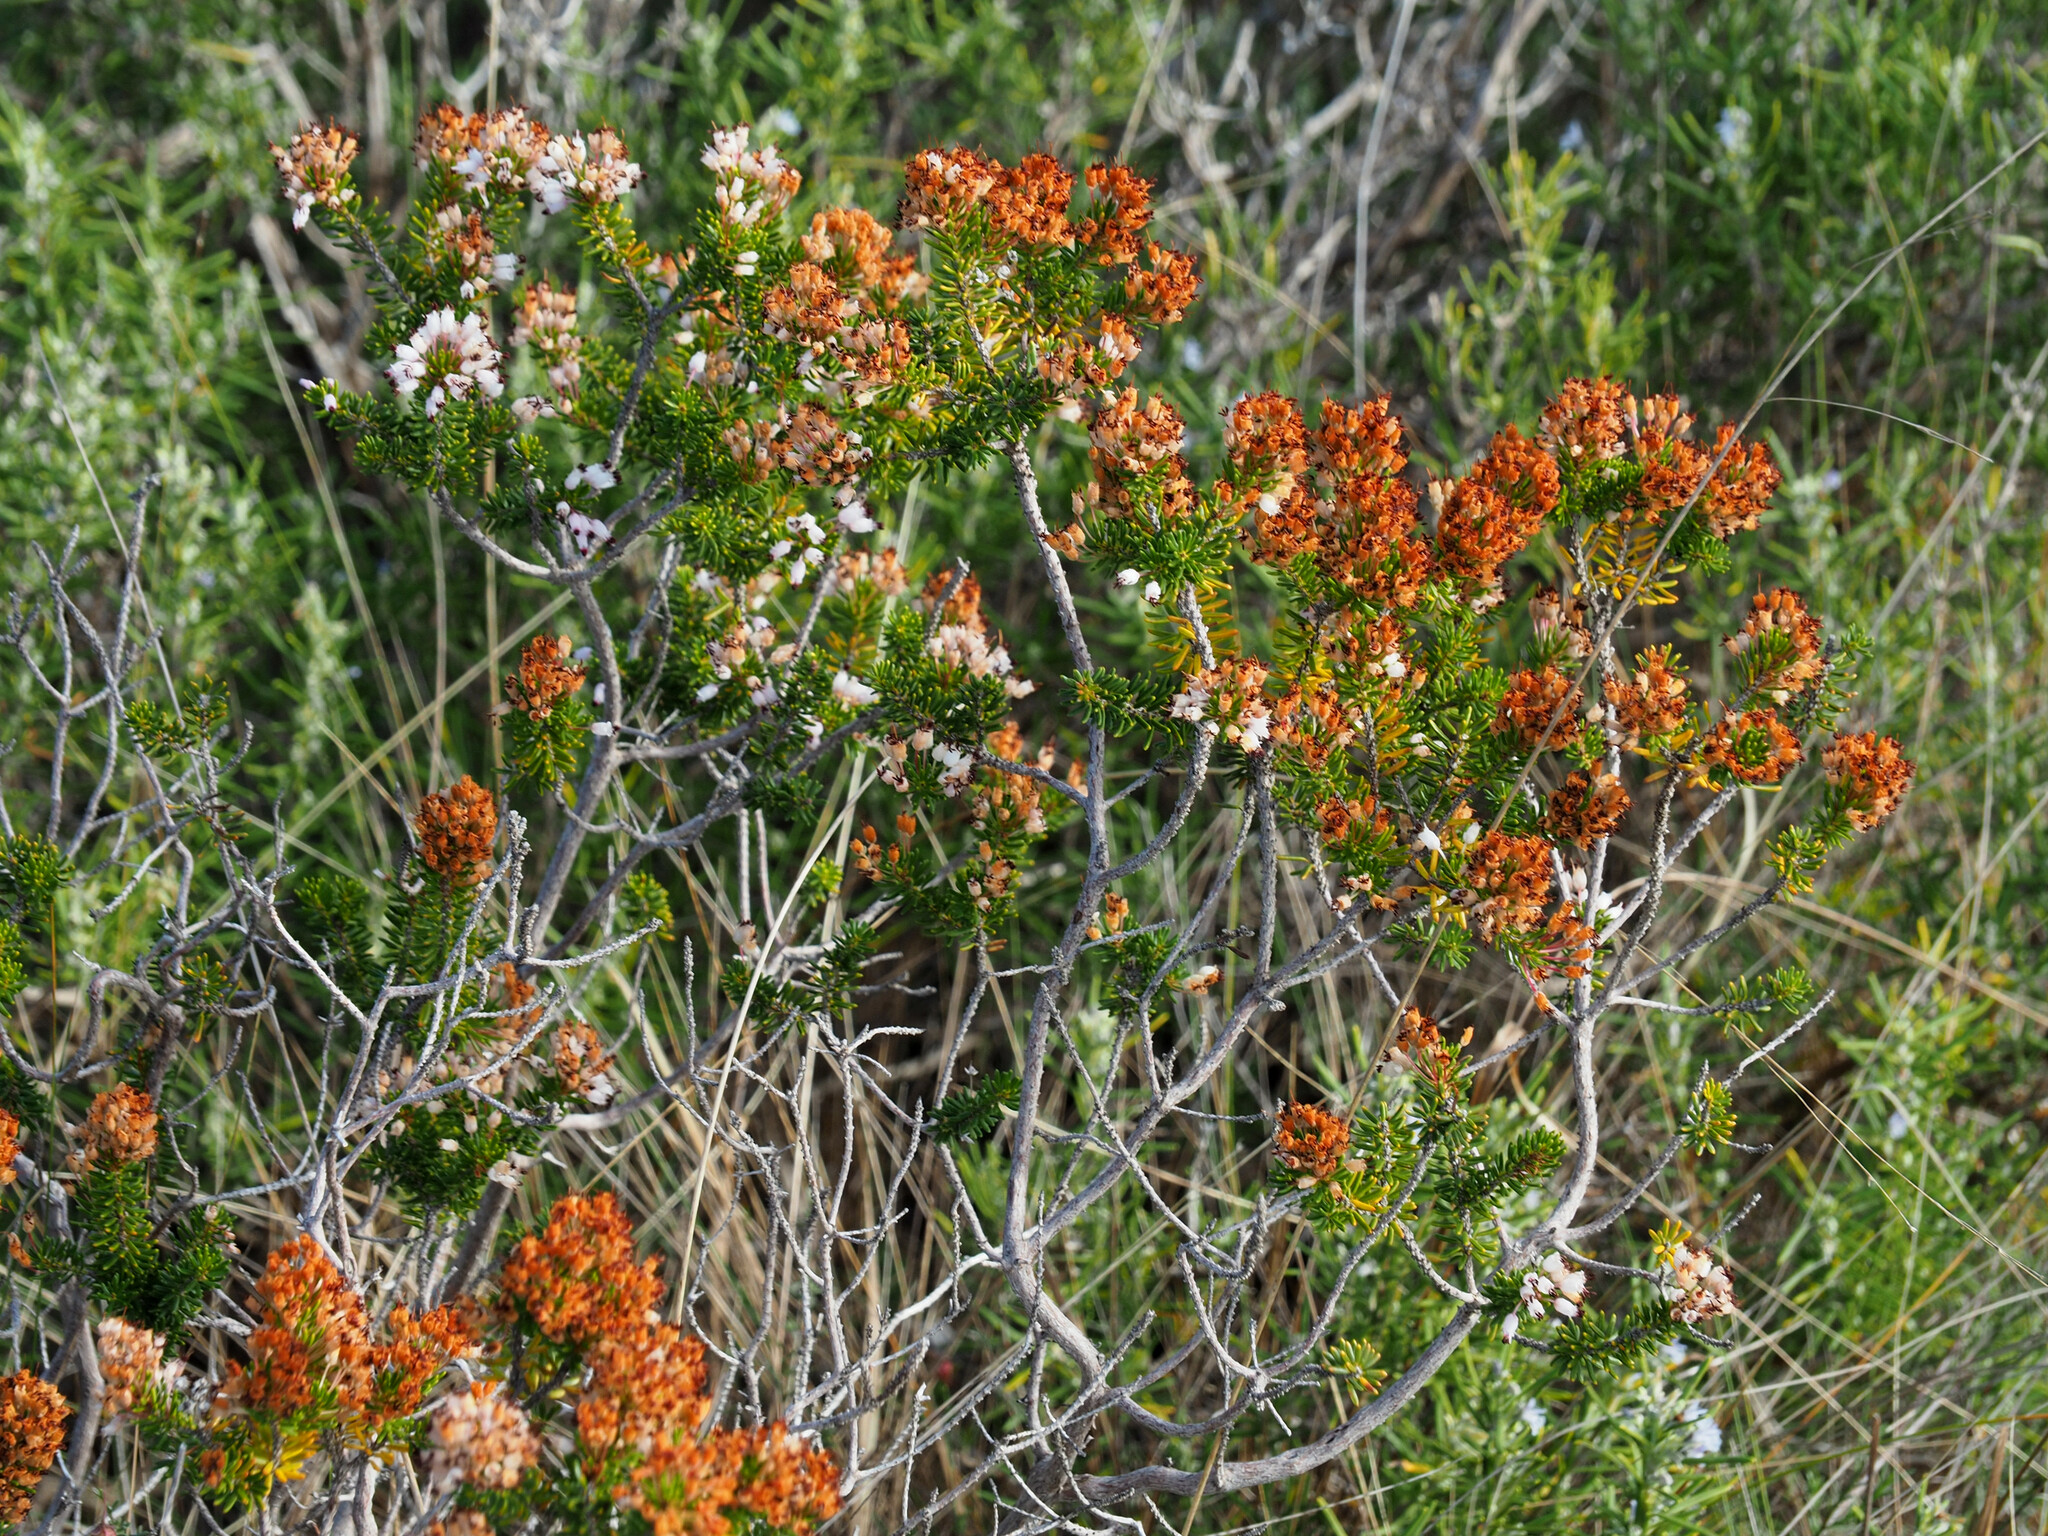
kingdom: Plantae
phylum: Tracheophyta
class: Magnoliopsida
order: Ericales
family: Ericaceae
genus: Erica
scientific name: Erica multiflora
